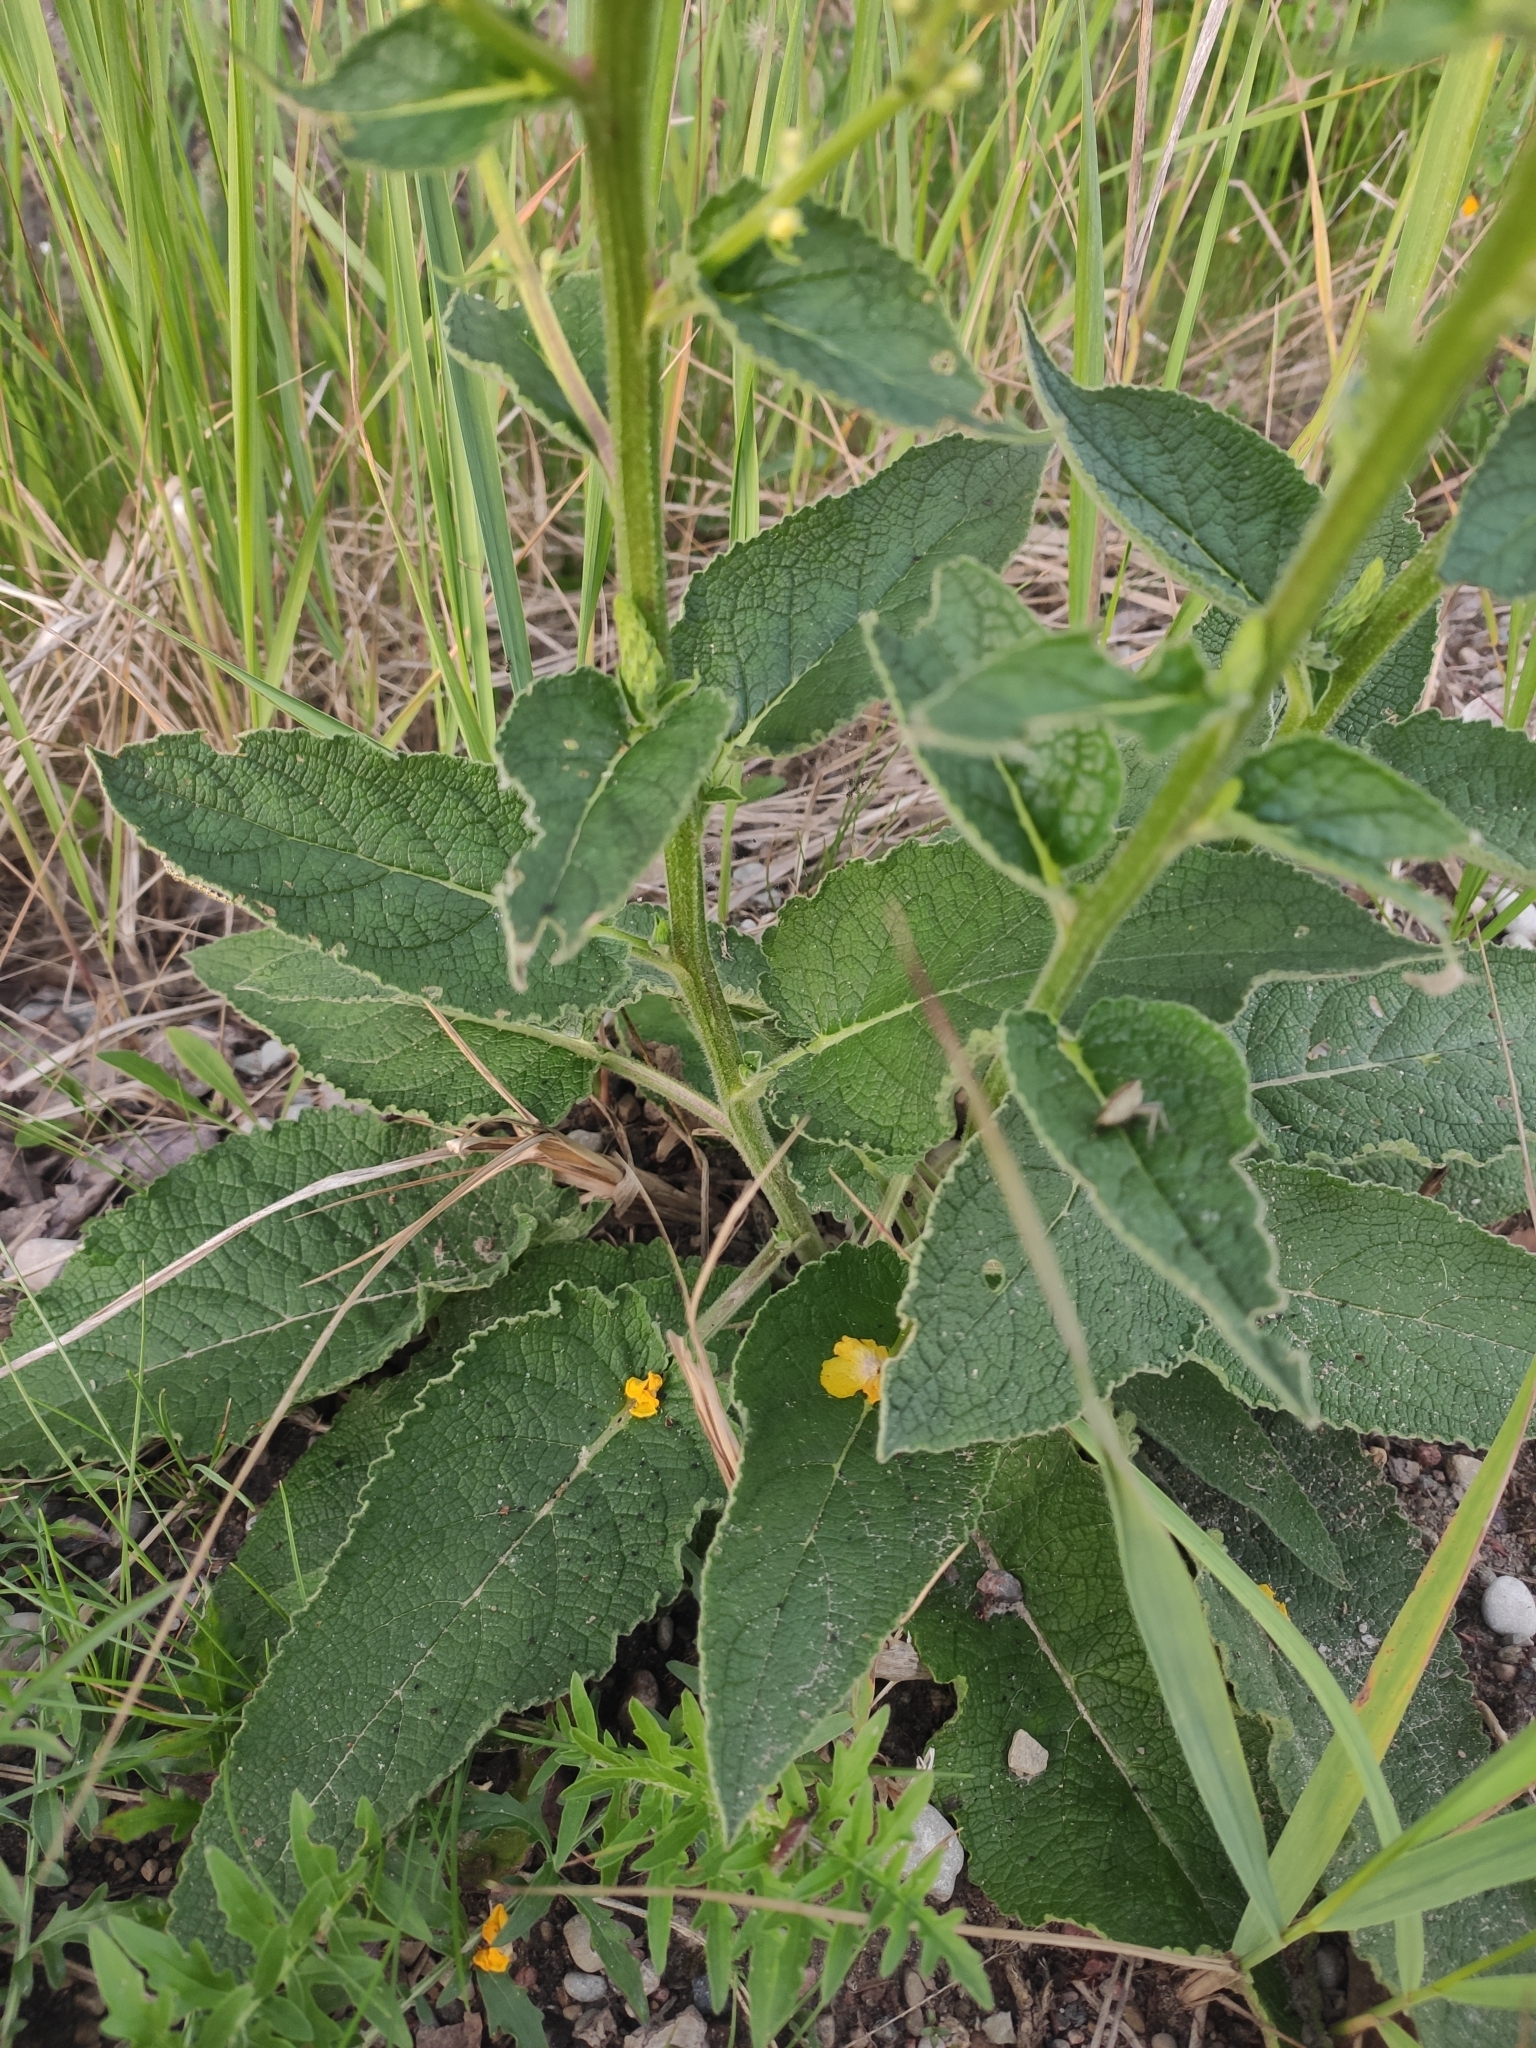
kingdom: Plantae
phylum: Tracheophyta
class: Magnoliopsida
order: Lamiales
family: Scrophulariaceae
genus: Verbascum
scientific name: Verbascum nigrum
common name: Dark mullein
